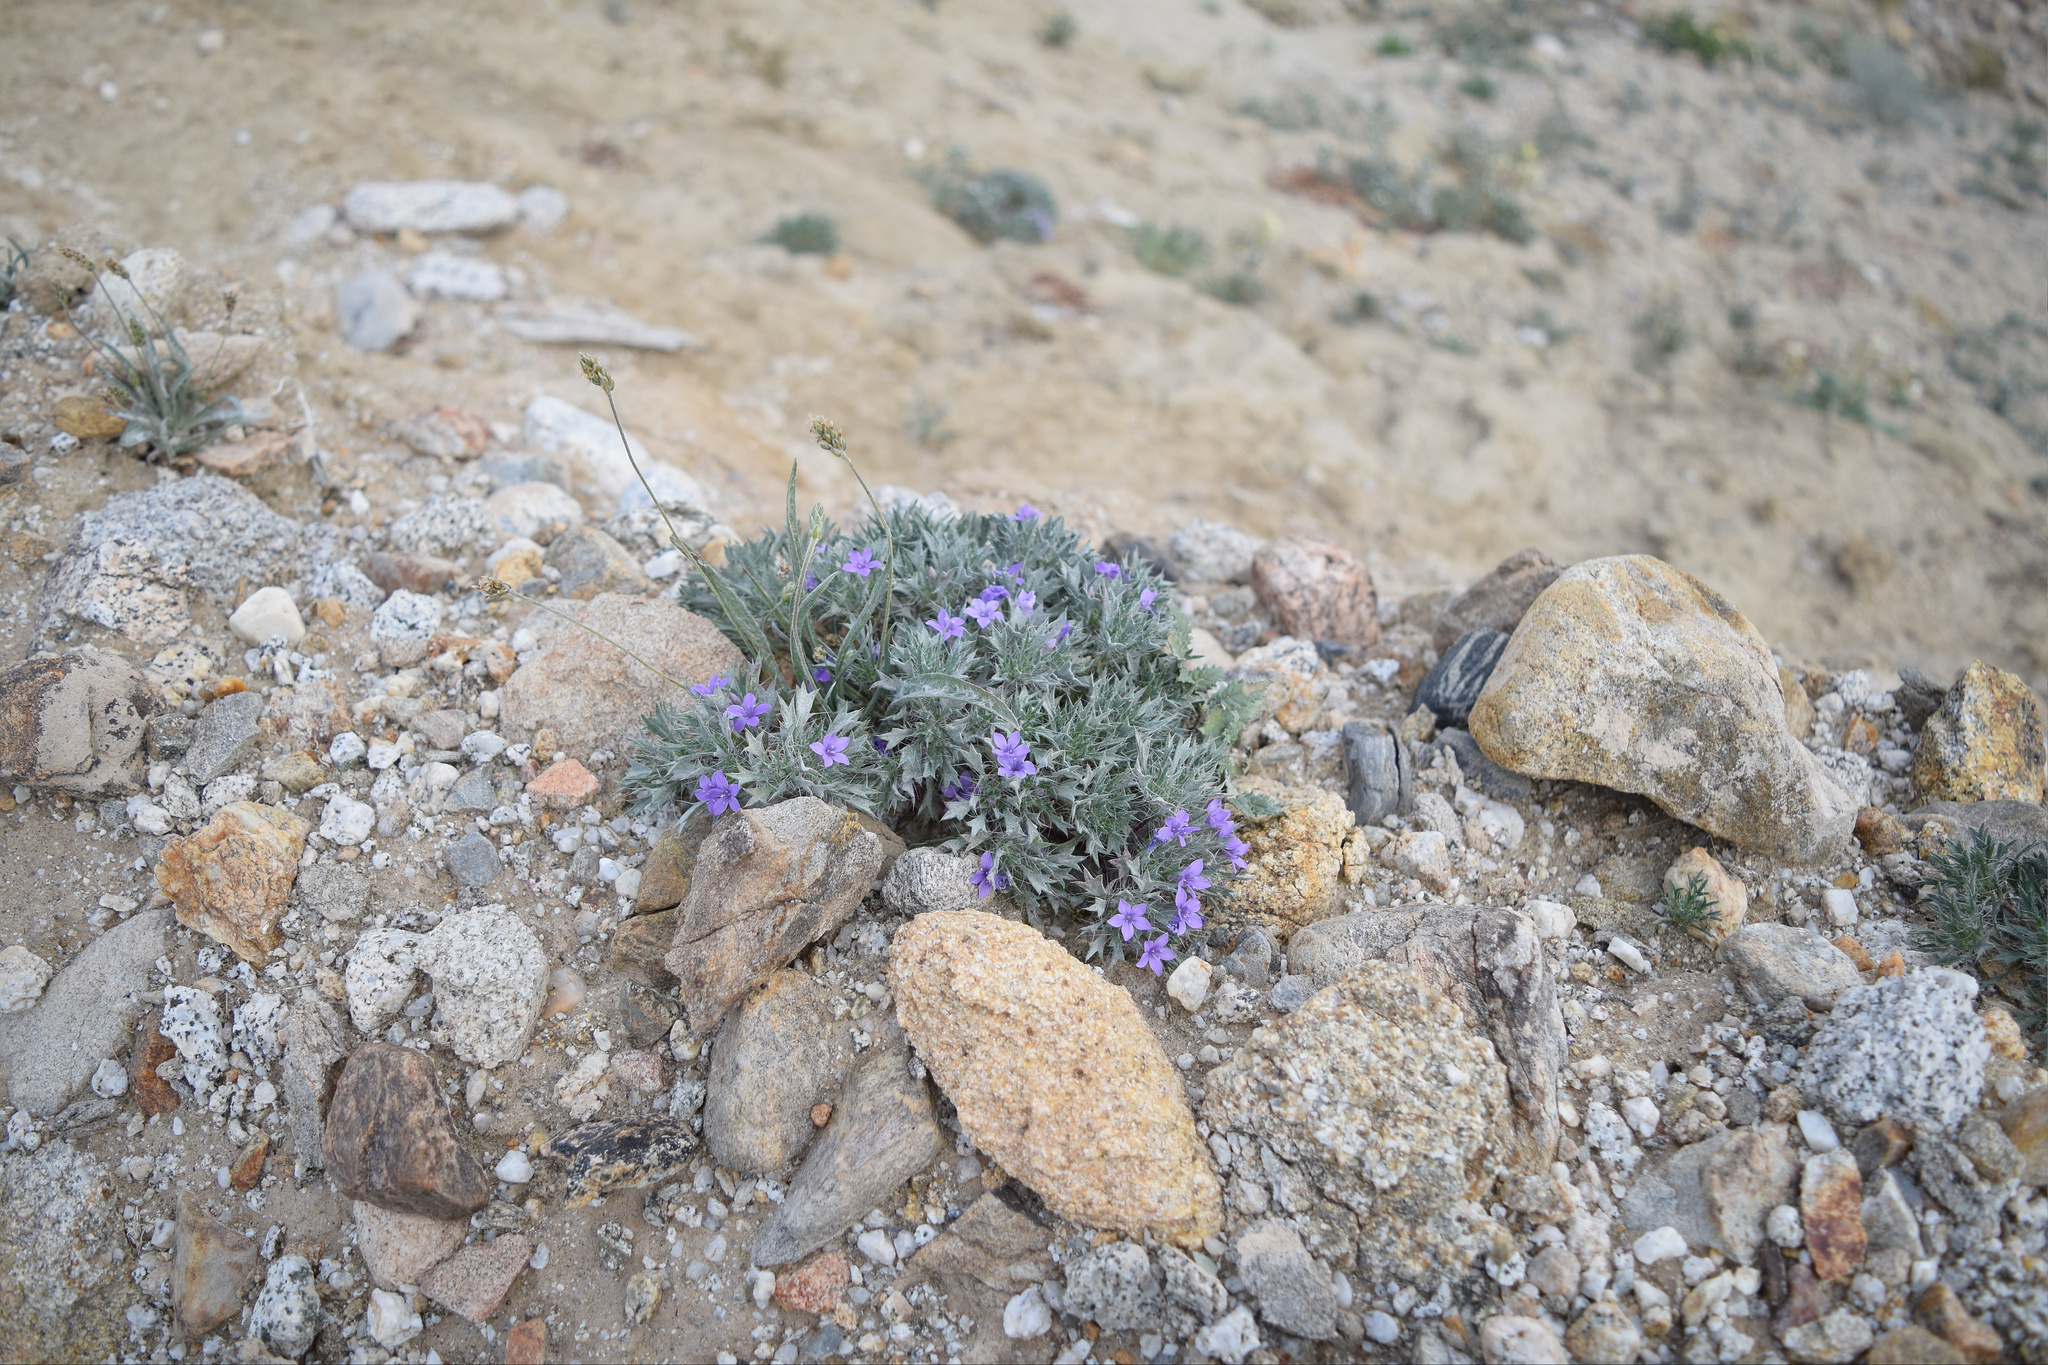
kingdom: Plantae
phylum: Tracheophyta
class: Magnoliopsida
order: Ericales
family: Polemoniaceae
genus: Langloisia
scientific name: Langloisia setosissima
